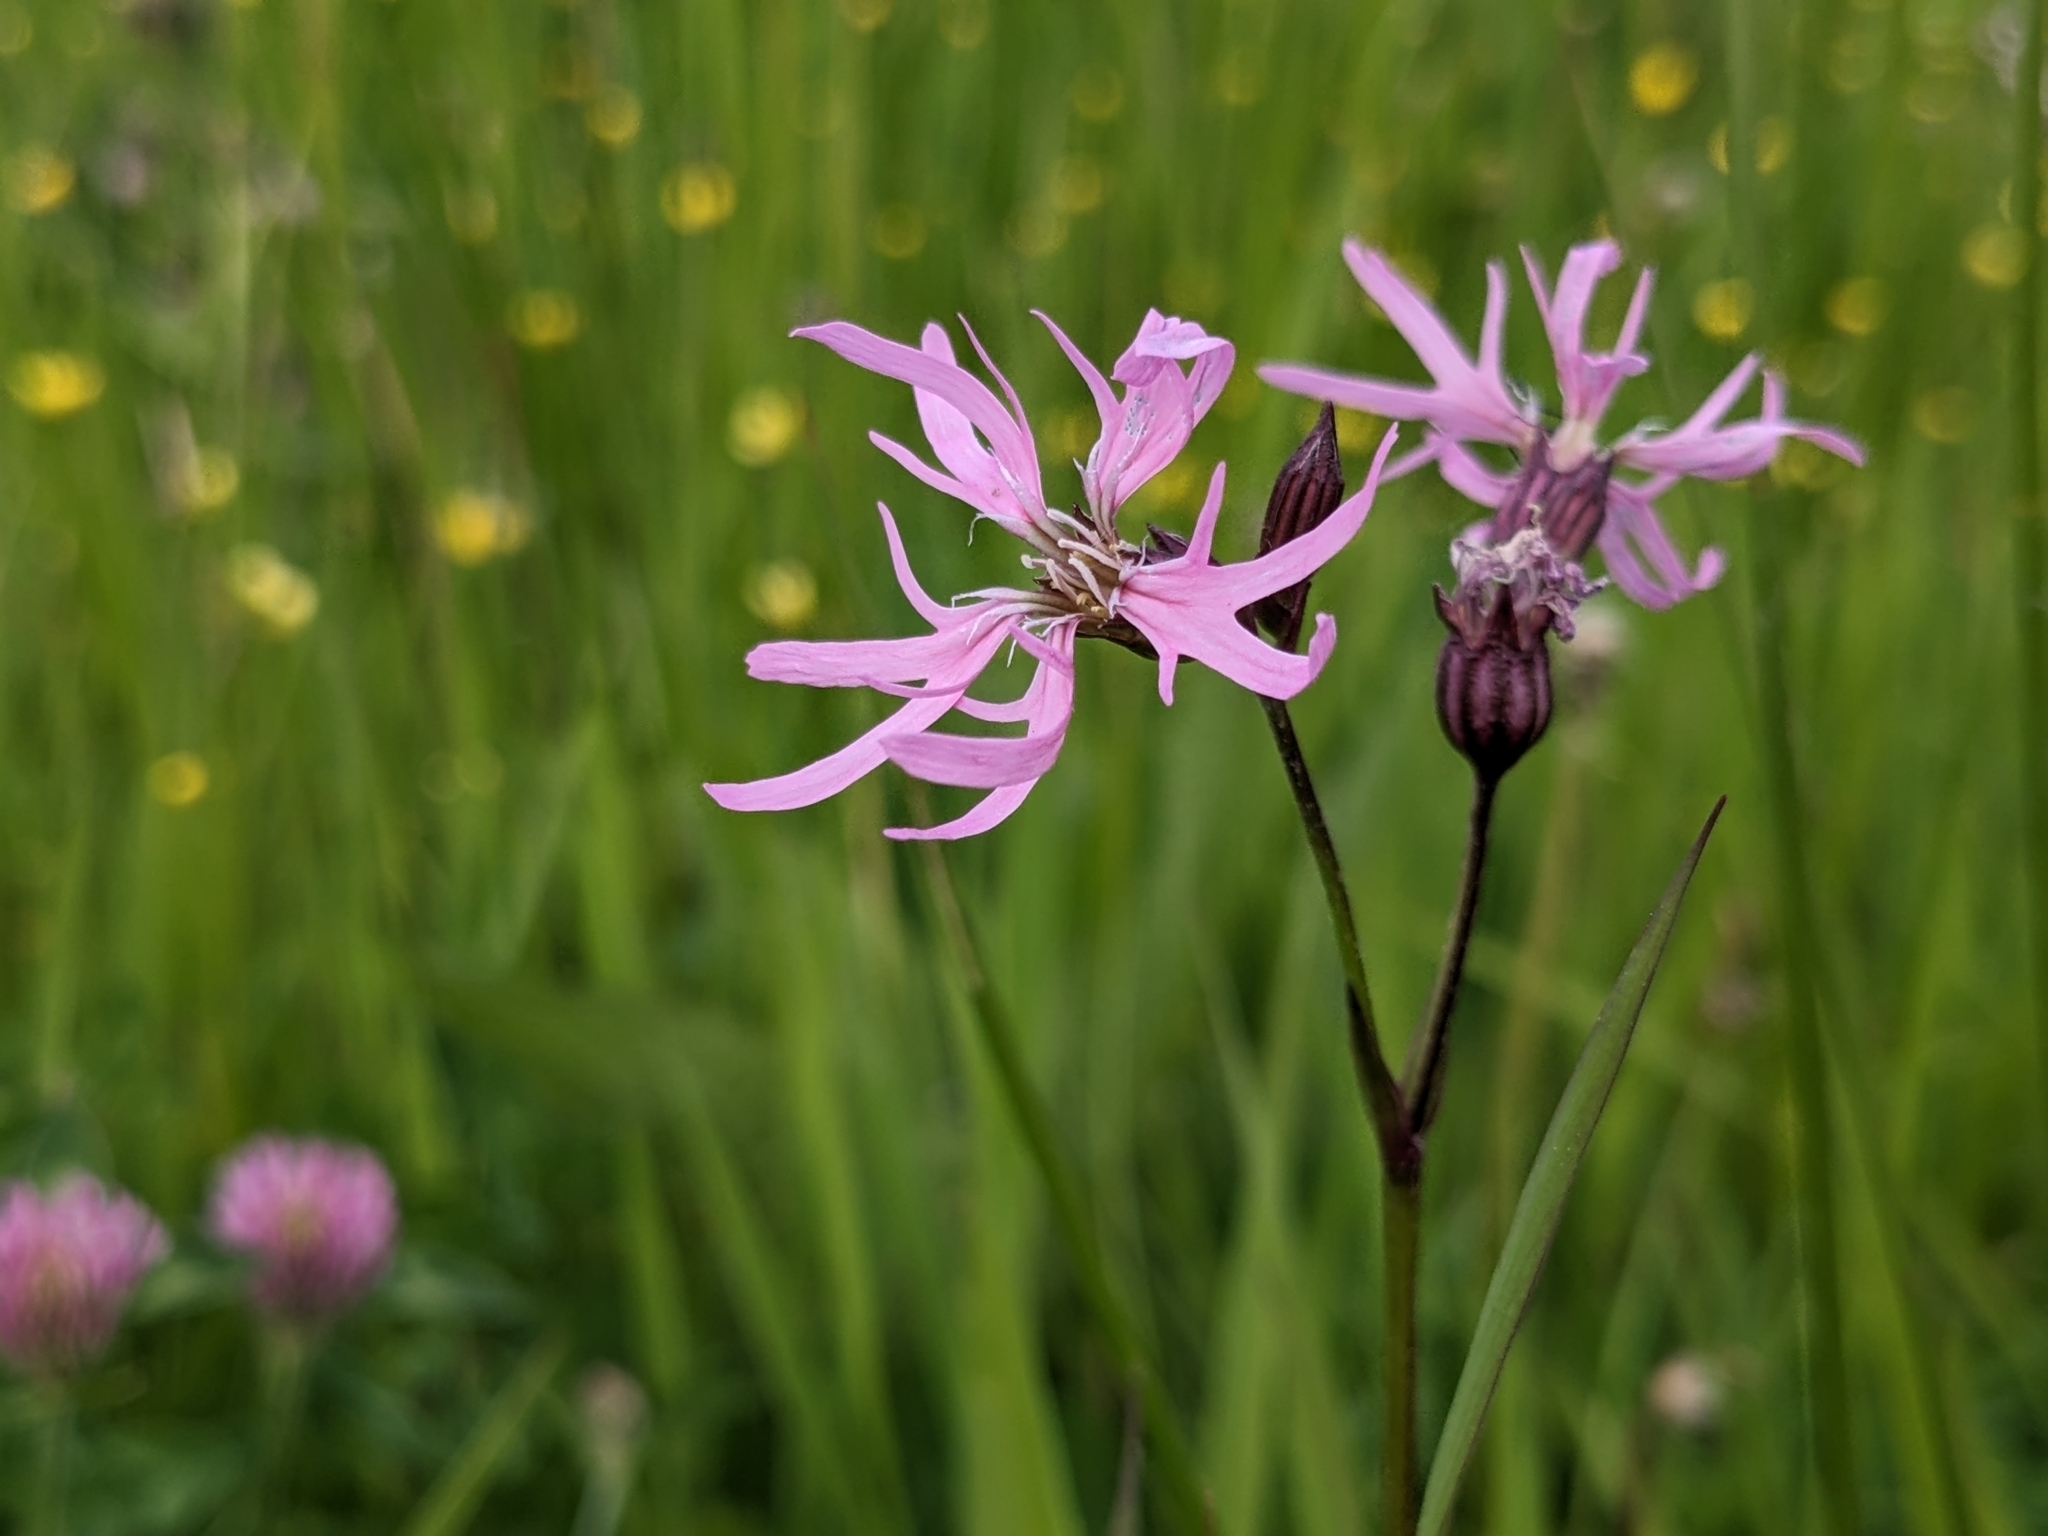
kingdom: Plantae
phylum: Tracheophyta
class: Magnoliopsida
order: Caryophyllales
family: Caryophyllaceae
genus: Silene
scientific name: Silene flos-cuculi
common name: Ragged-robin
